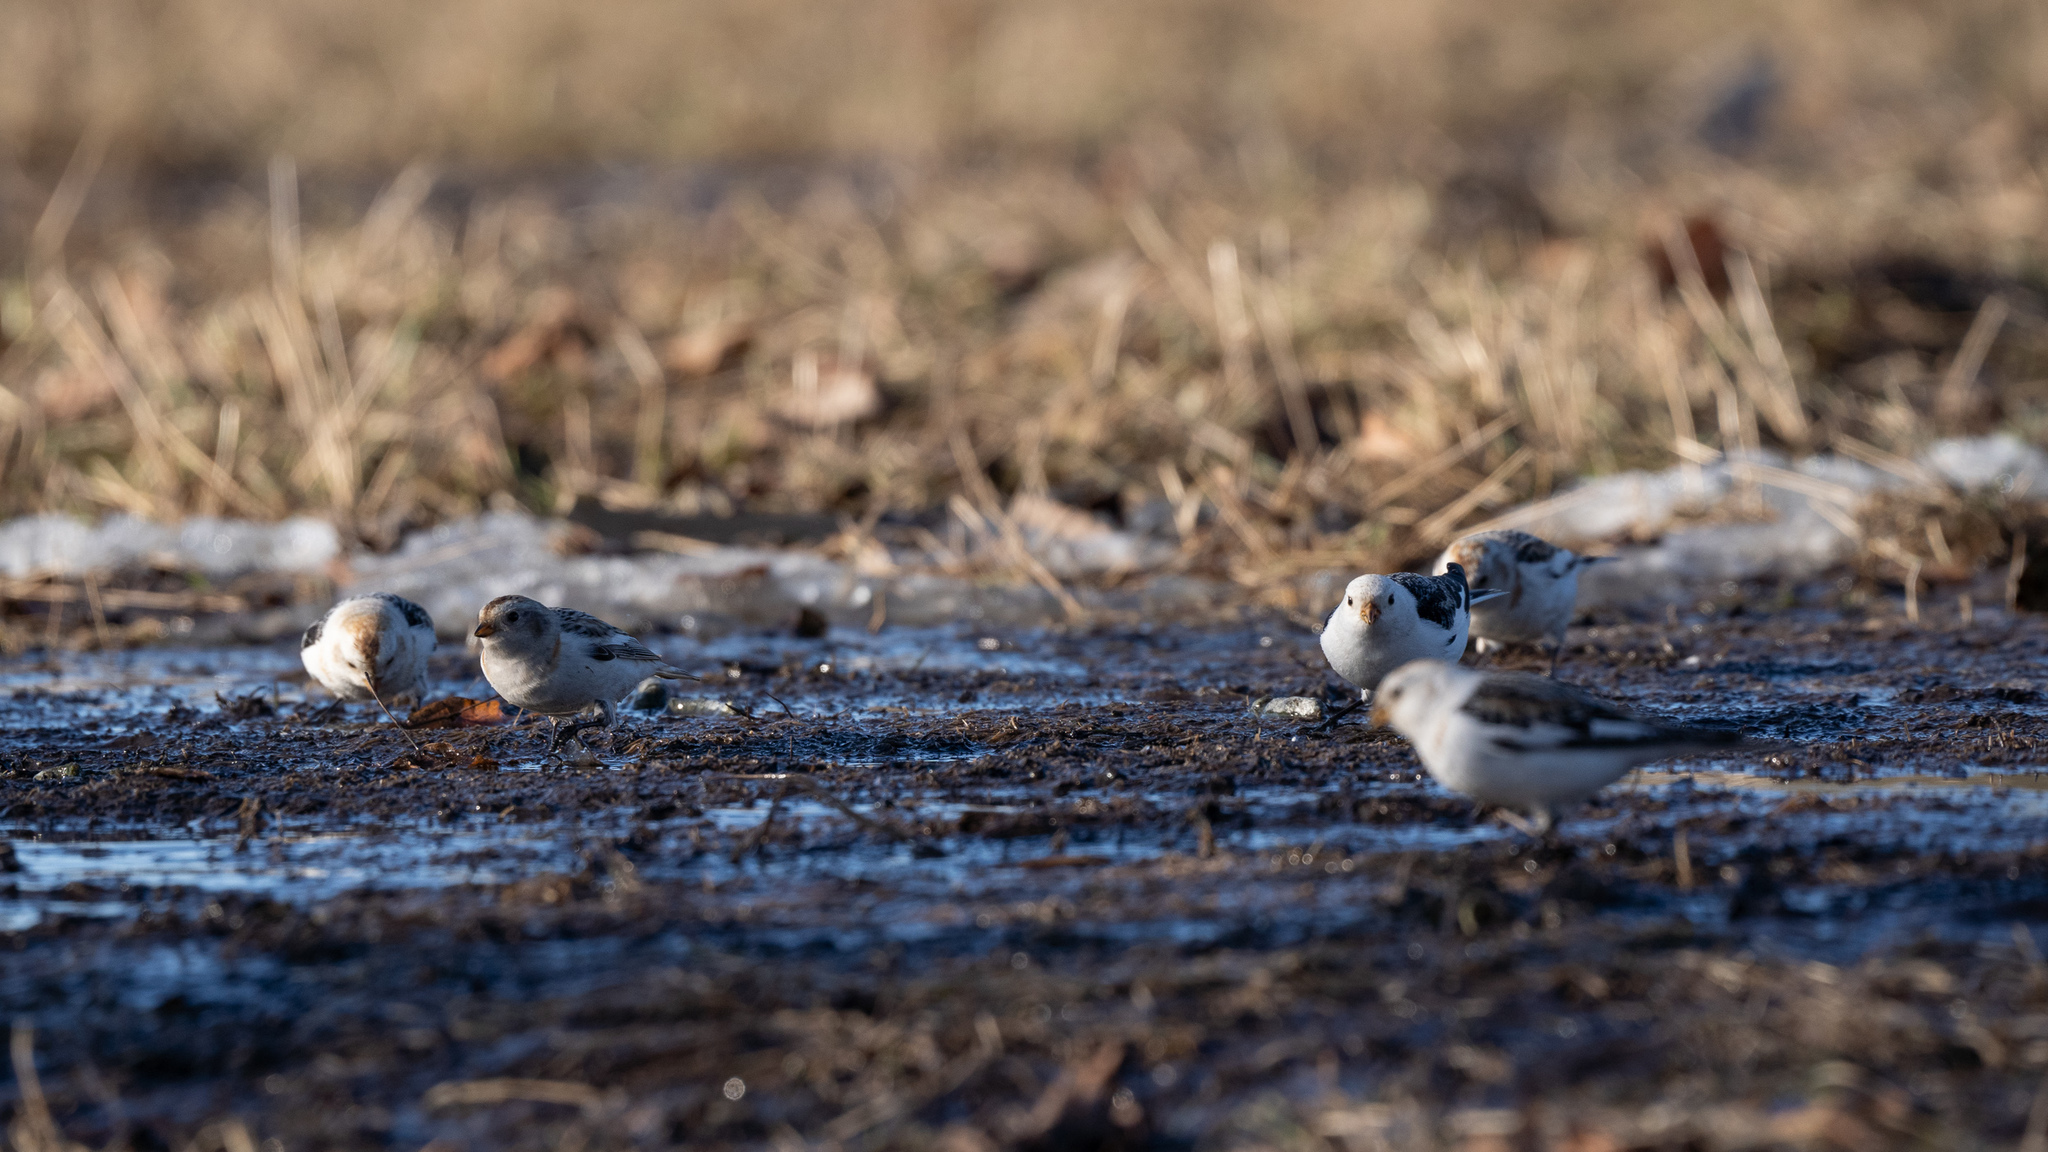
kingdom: Animalia
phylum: Chordata
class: Aves
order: Passeriformes
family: Calcariidae
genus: Plectrophenax
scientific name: Plectrophenax nivalis
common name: Snow bunting
